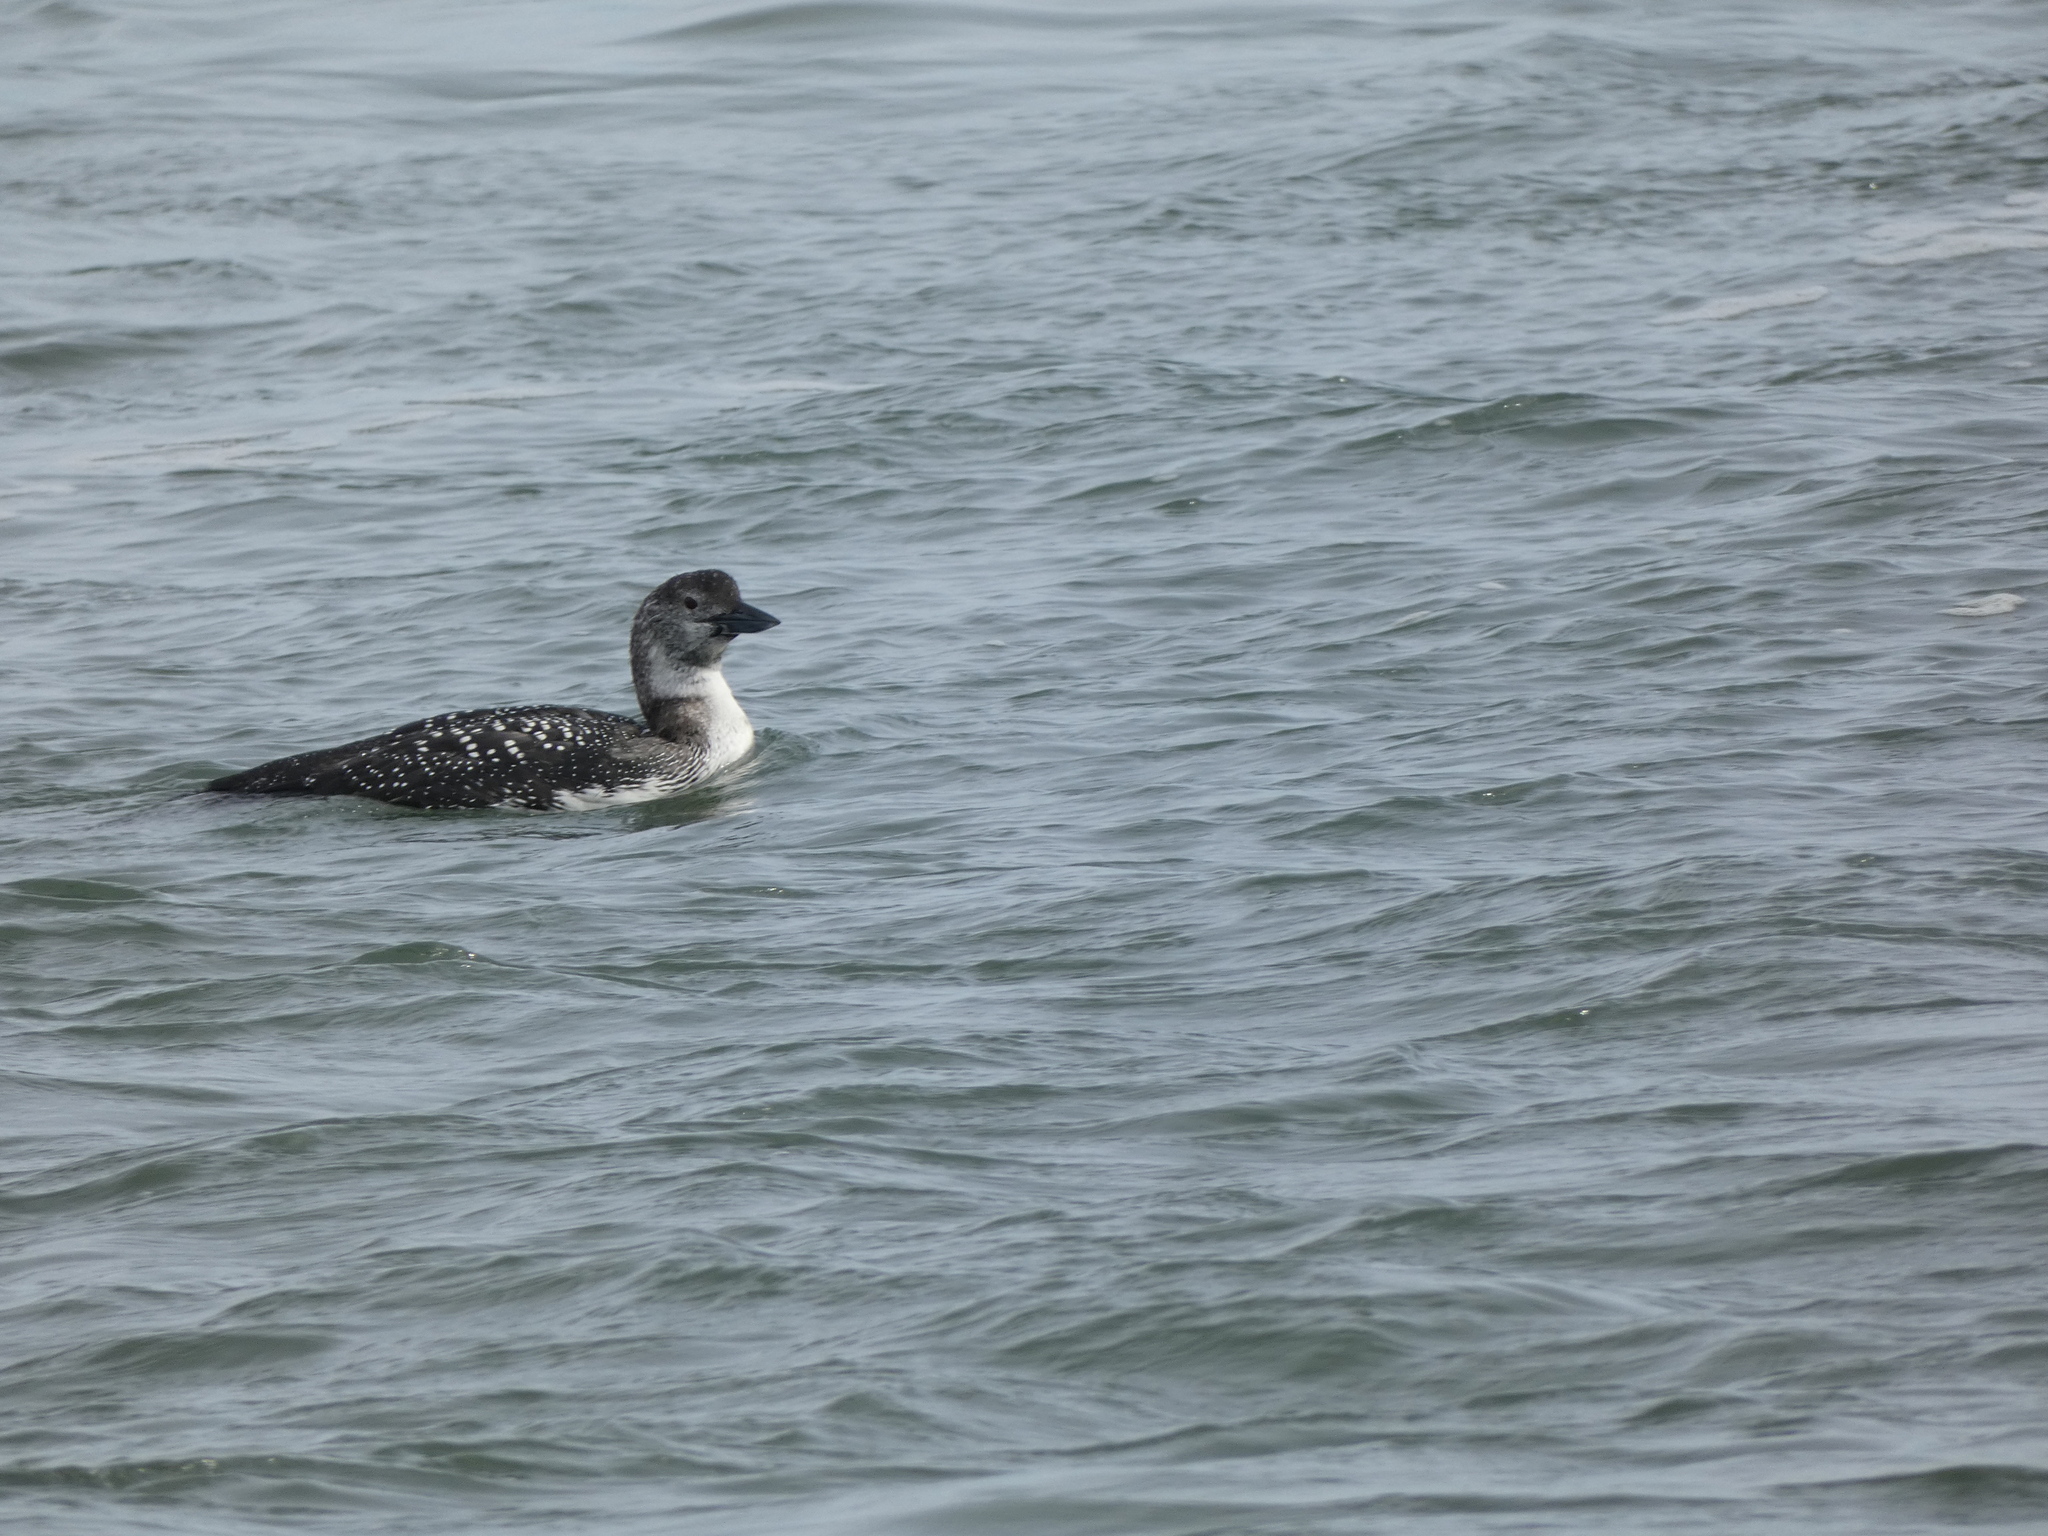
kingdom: Animalia
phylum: Chordata
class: Aves
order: Gaviiformes
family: Gaviidae
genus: Gavia
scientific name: Gavia immer
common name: Common loon
